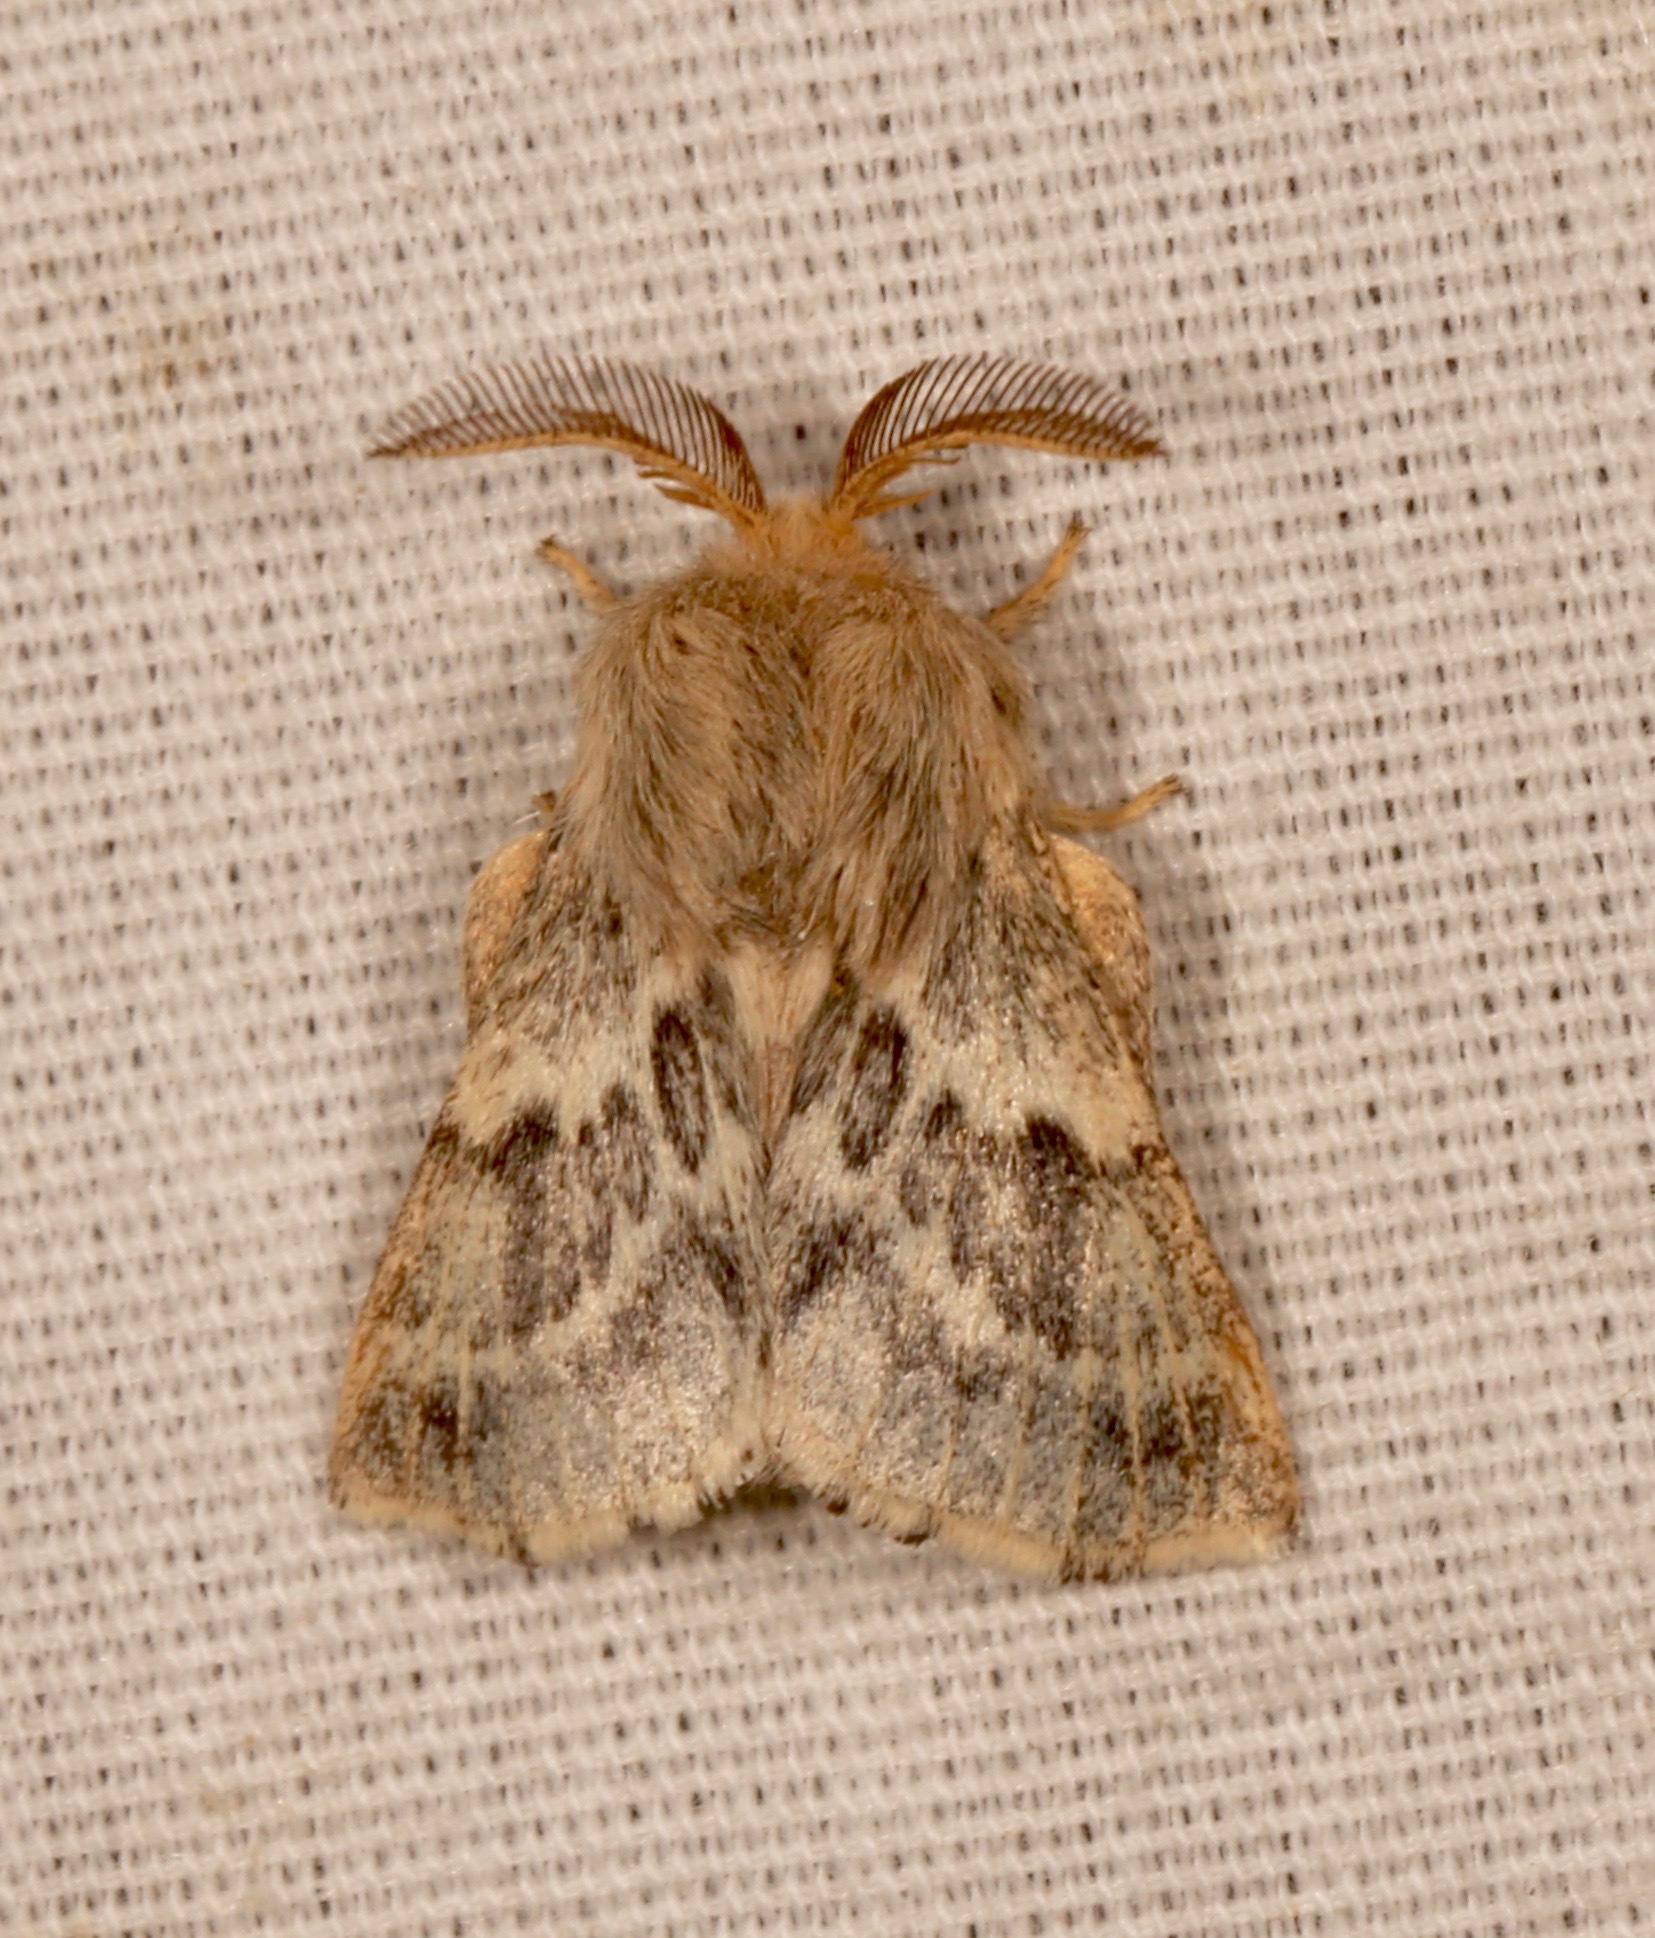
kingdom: Animalia
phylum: Arthropoda
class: Insecta
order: Lepidoptera
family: Lasiocampidae
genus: Malacosoma
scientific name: Malacosoma californica
